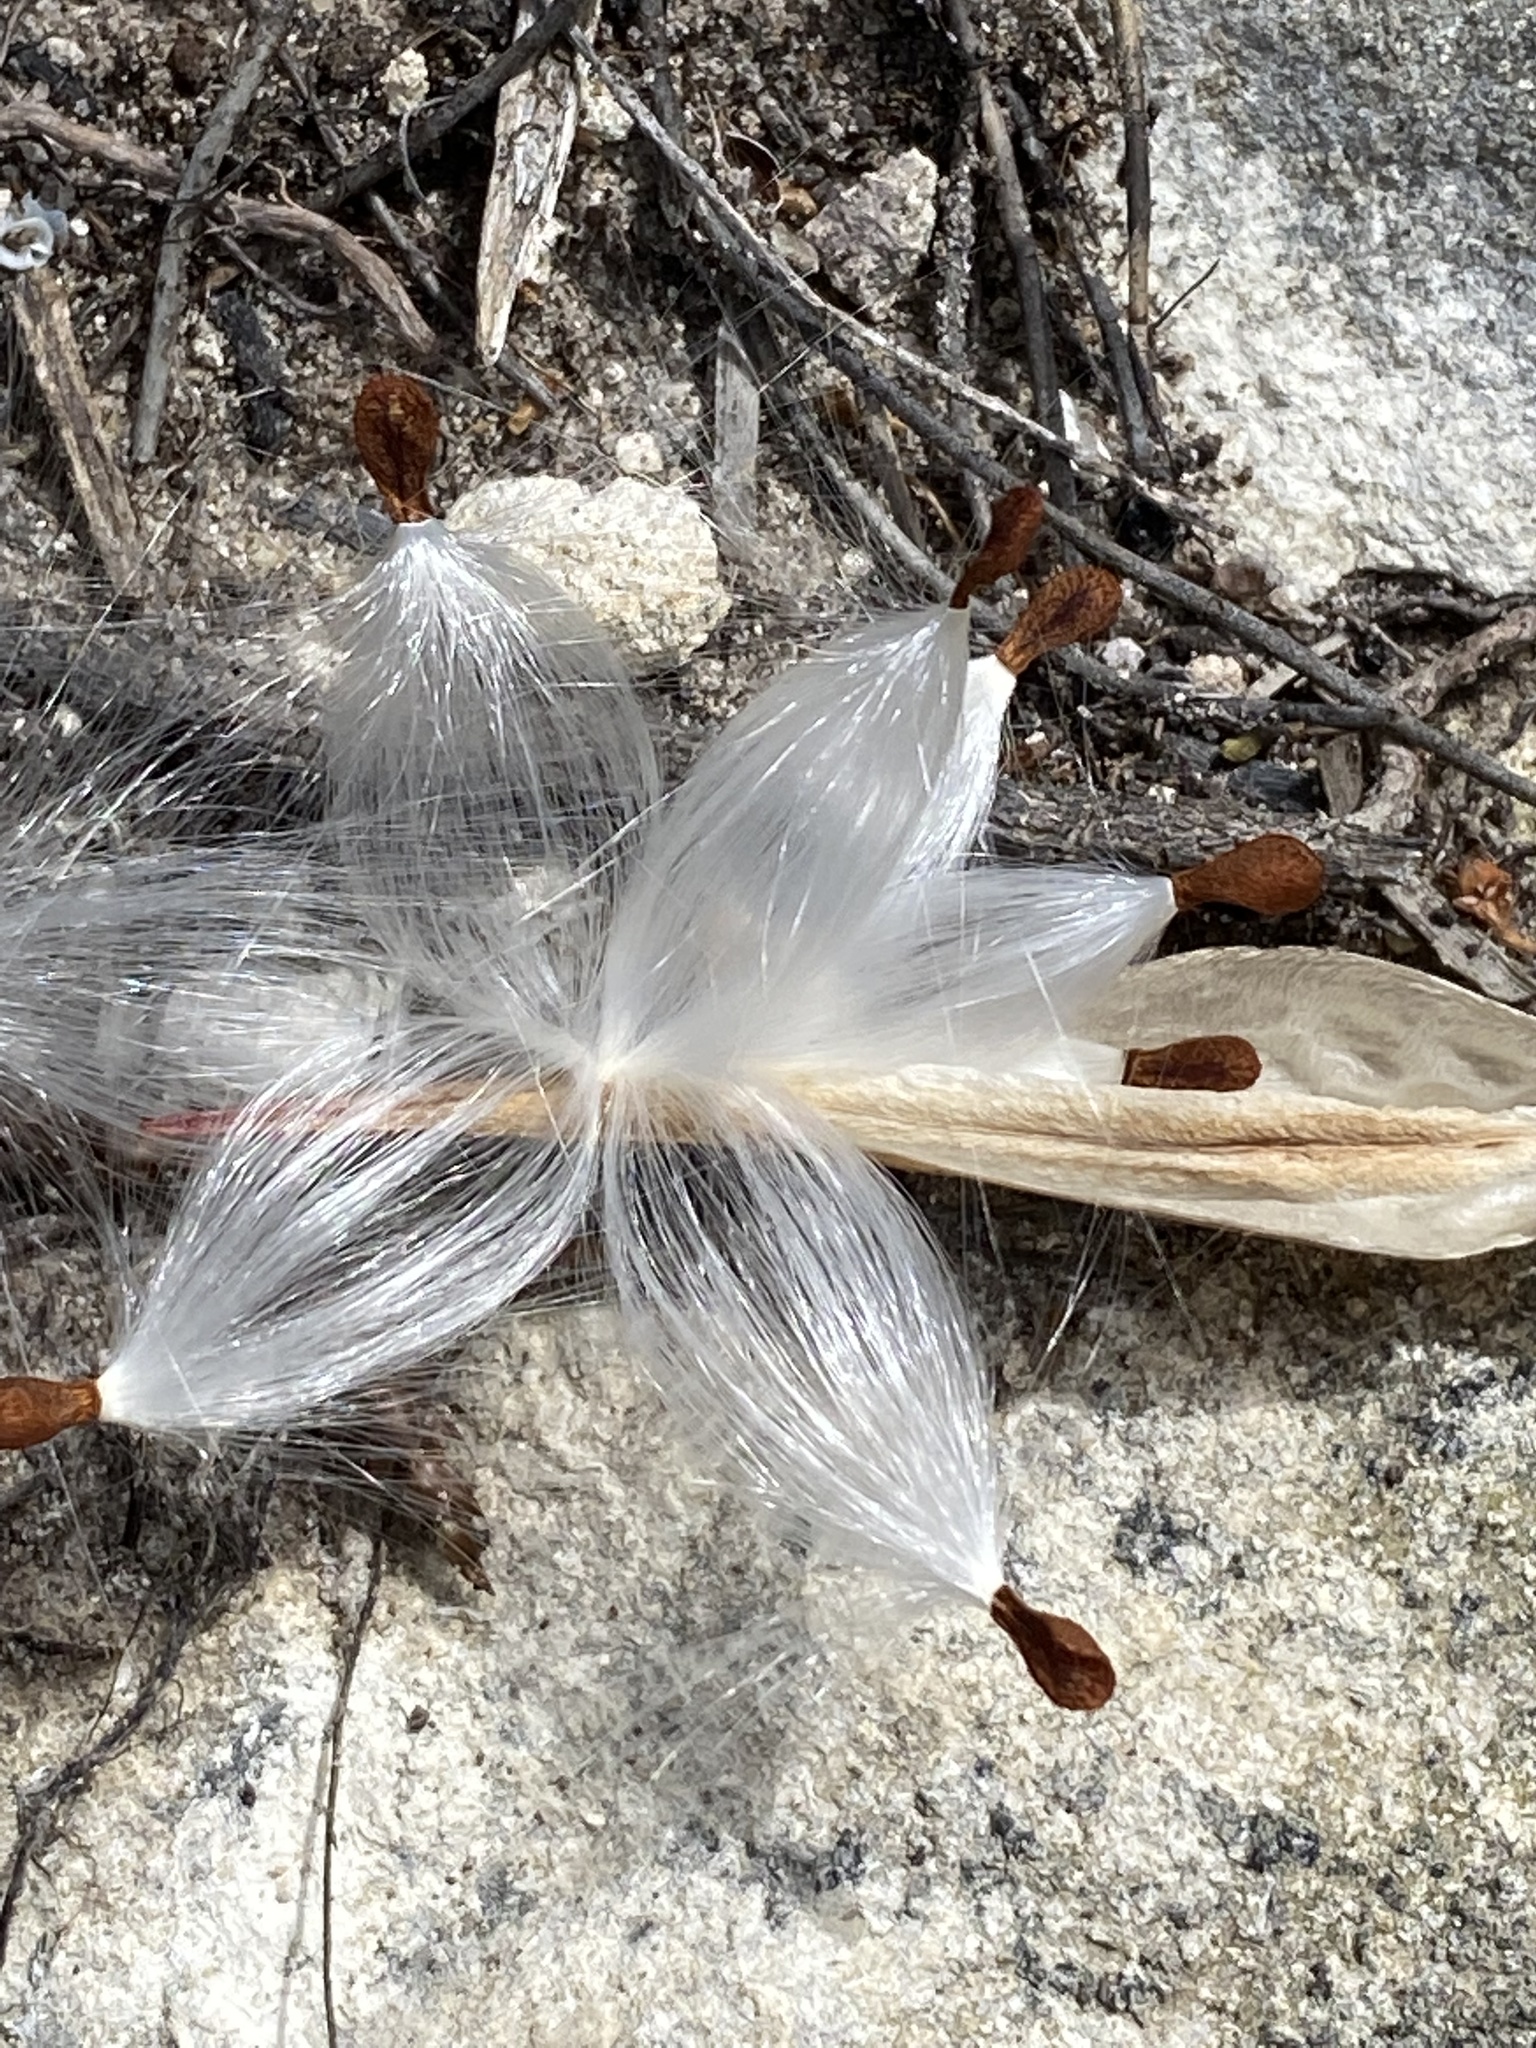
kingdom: Plantae
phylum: Tracheophyta
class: Magnoliopsida
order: Gentianales
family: Apocynaceae
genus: Astephanus
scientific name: Astephanus triflorus
